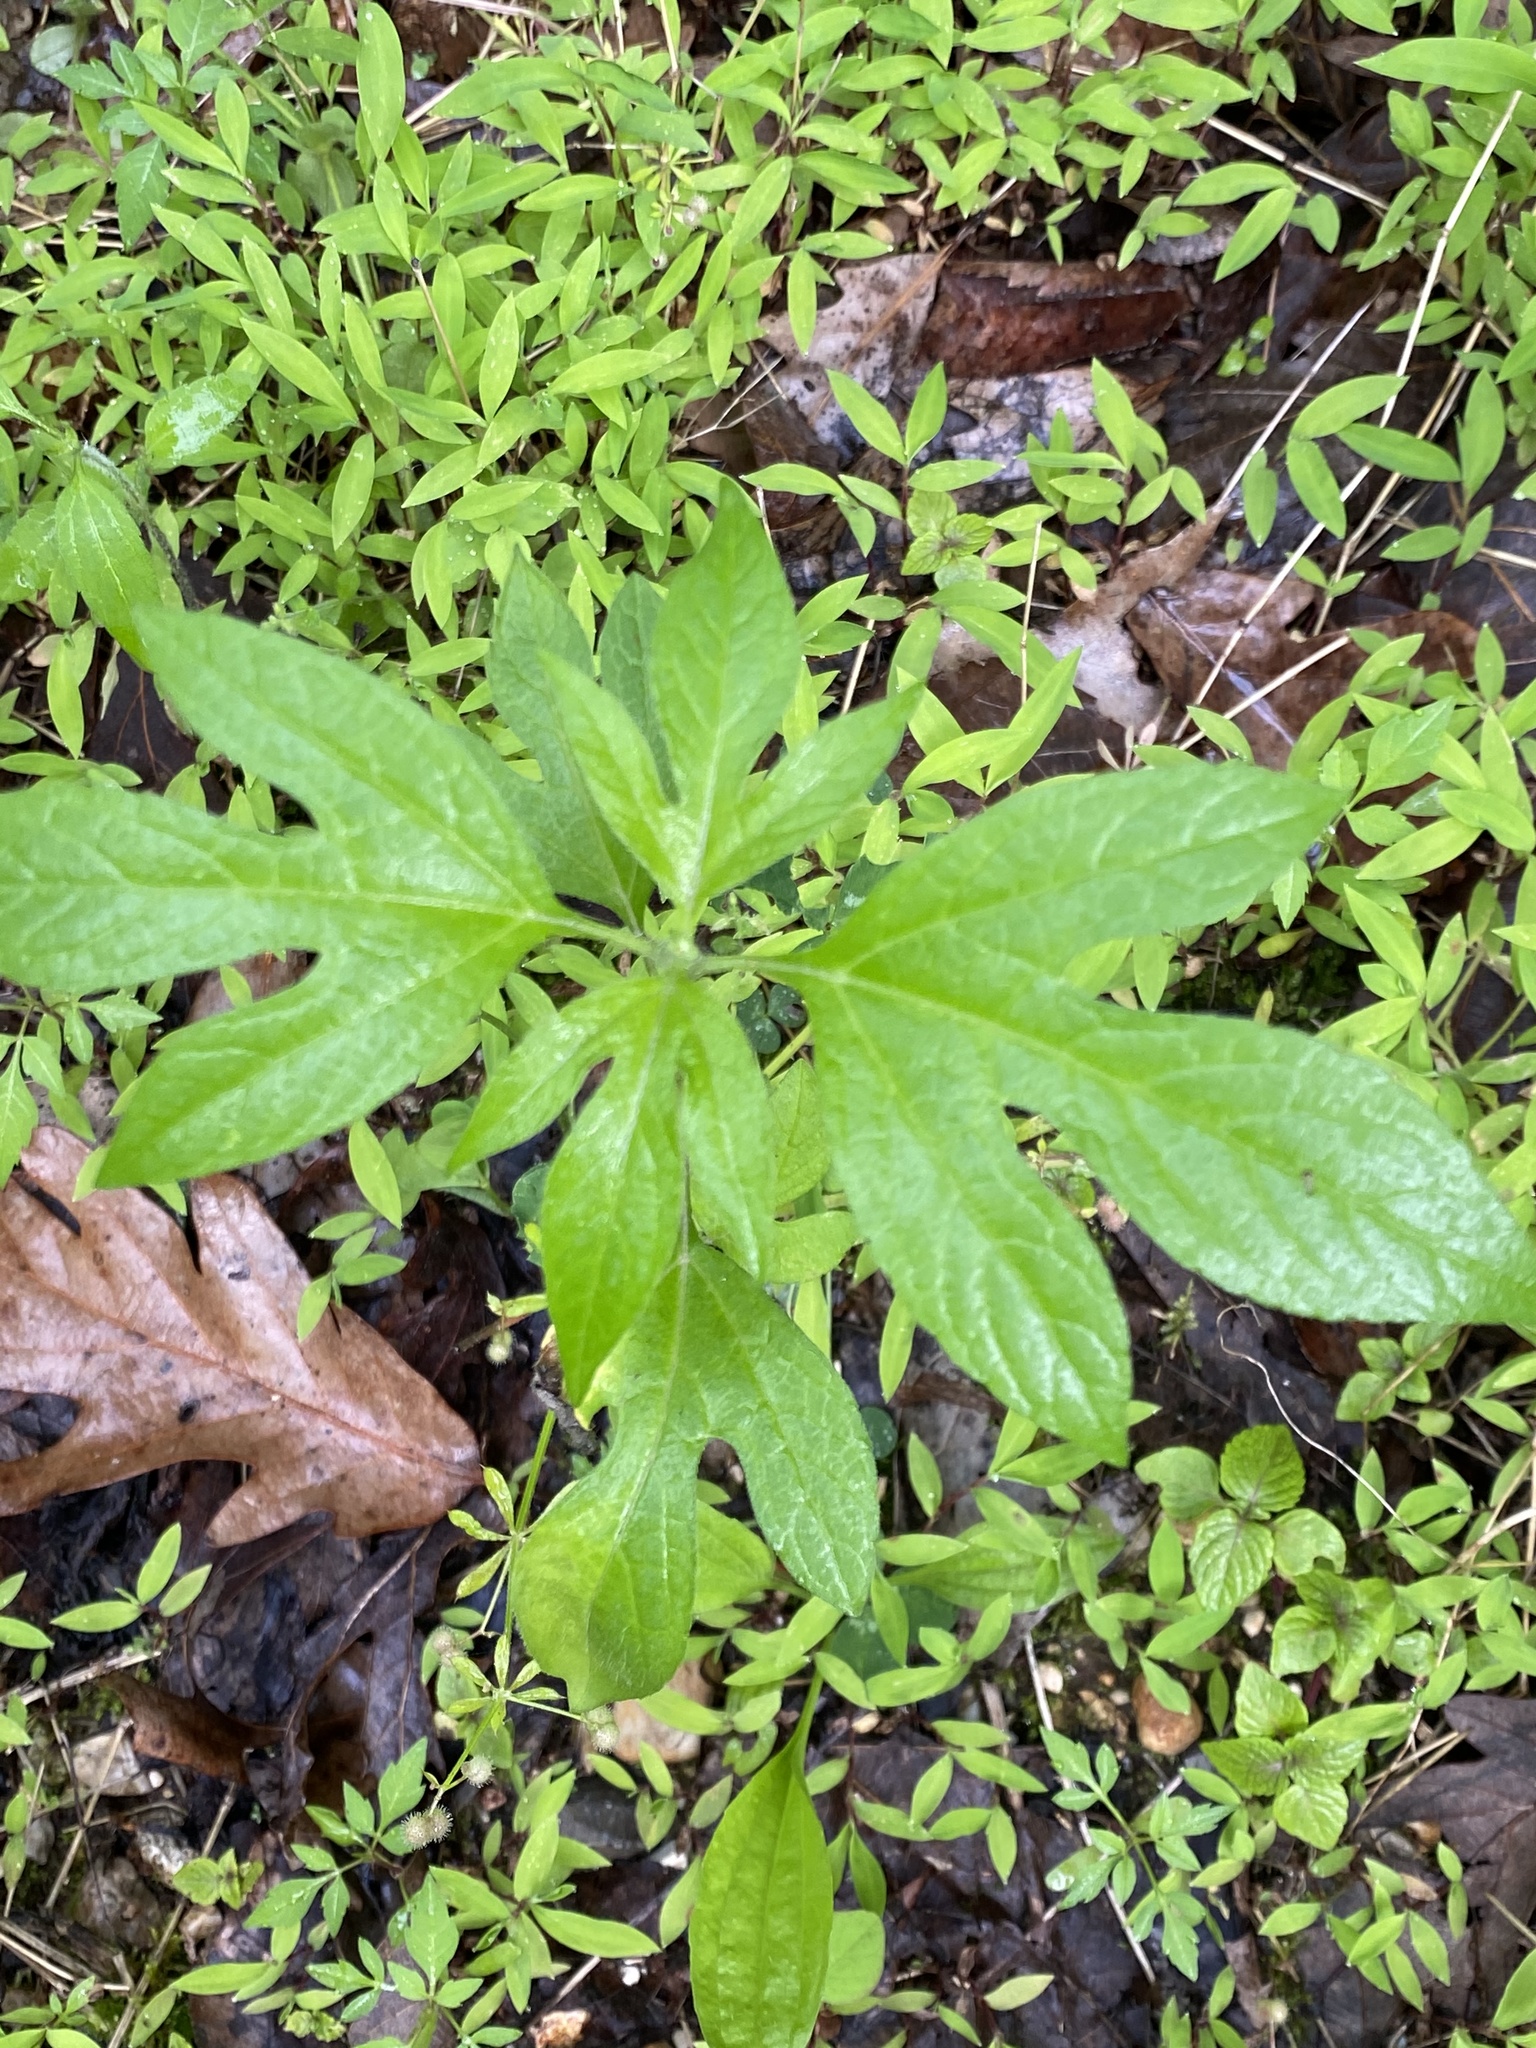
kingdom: Plantae
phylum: Tracheophyta
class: Magnoliopsida
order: Asterales
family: Asteraceae
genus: Ambrosia
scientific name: Ambrosia trifida
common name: Giant ragweed
